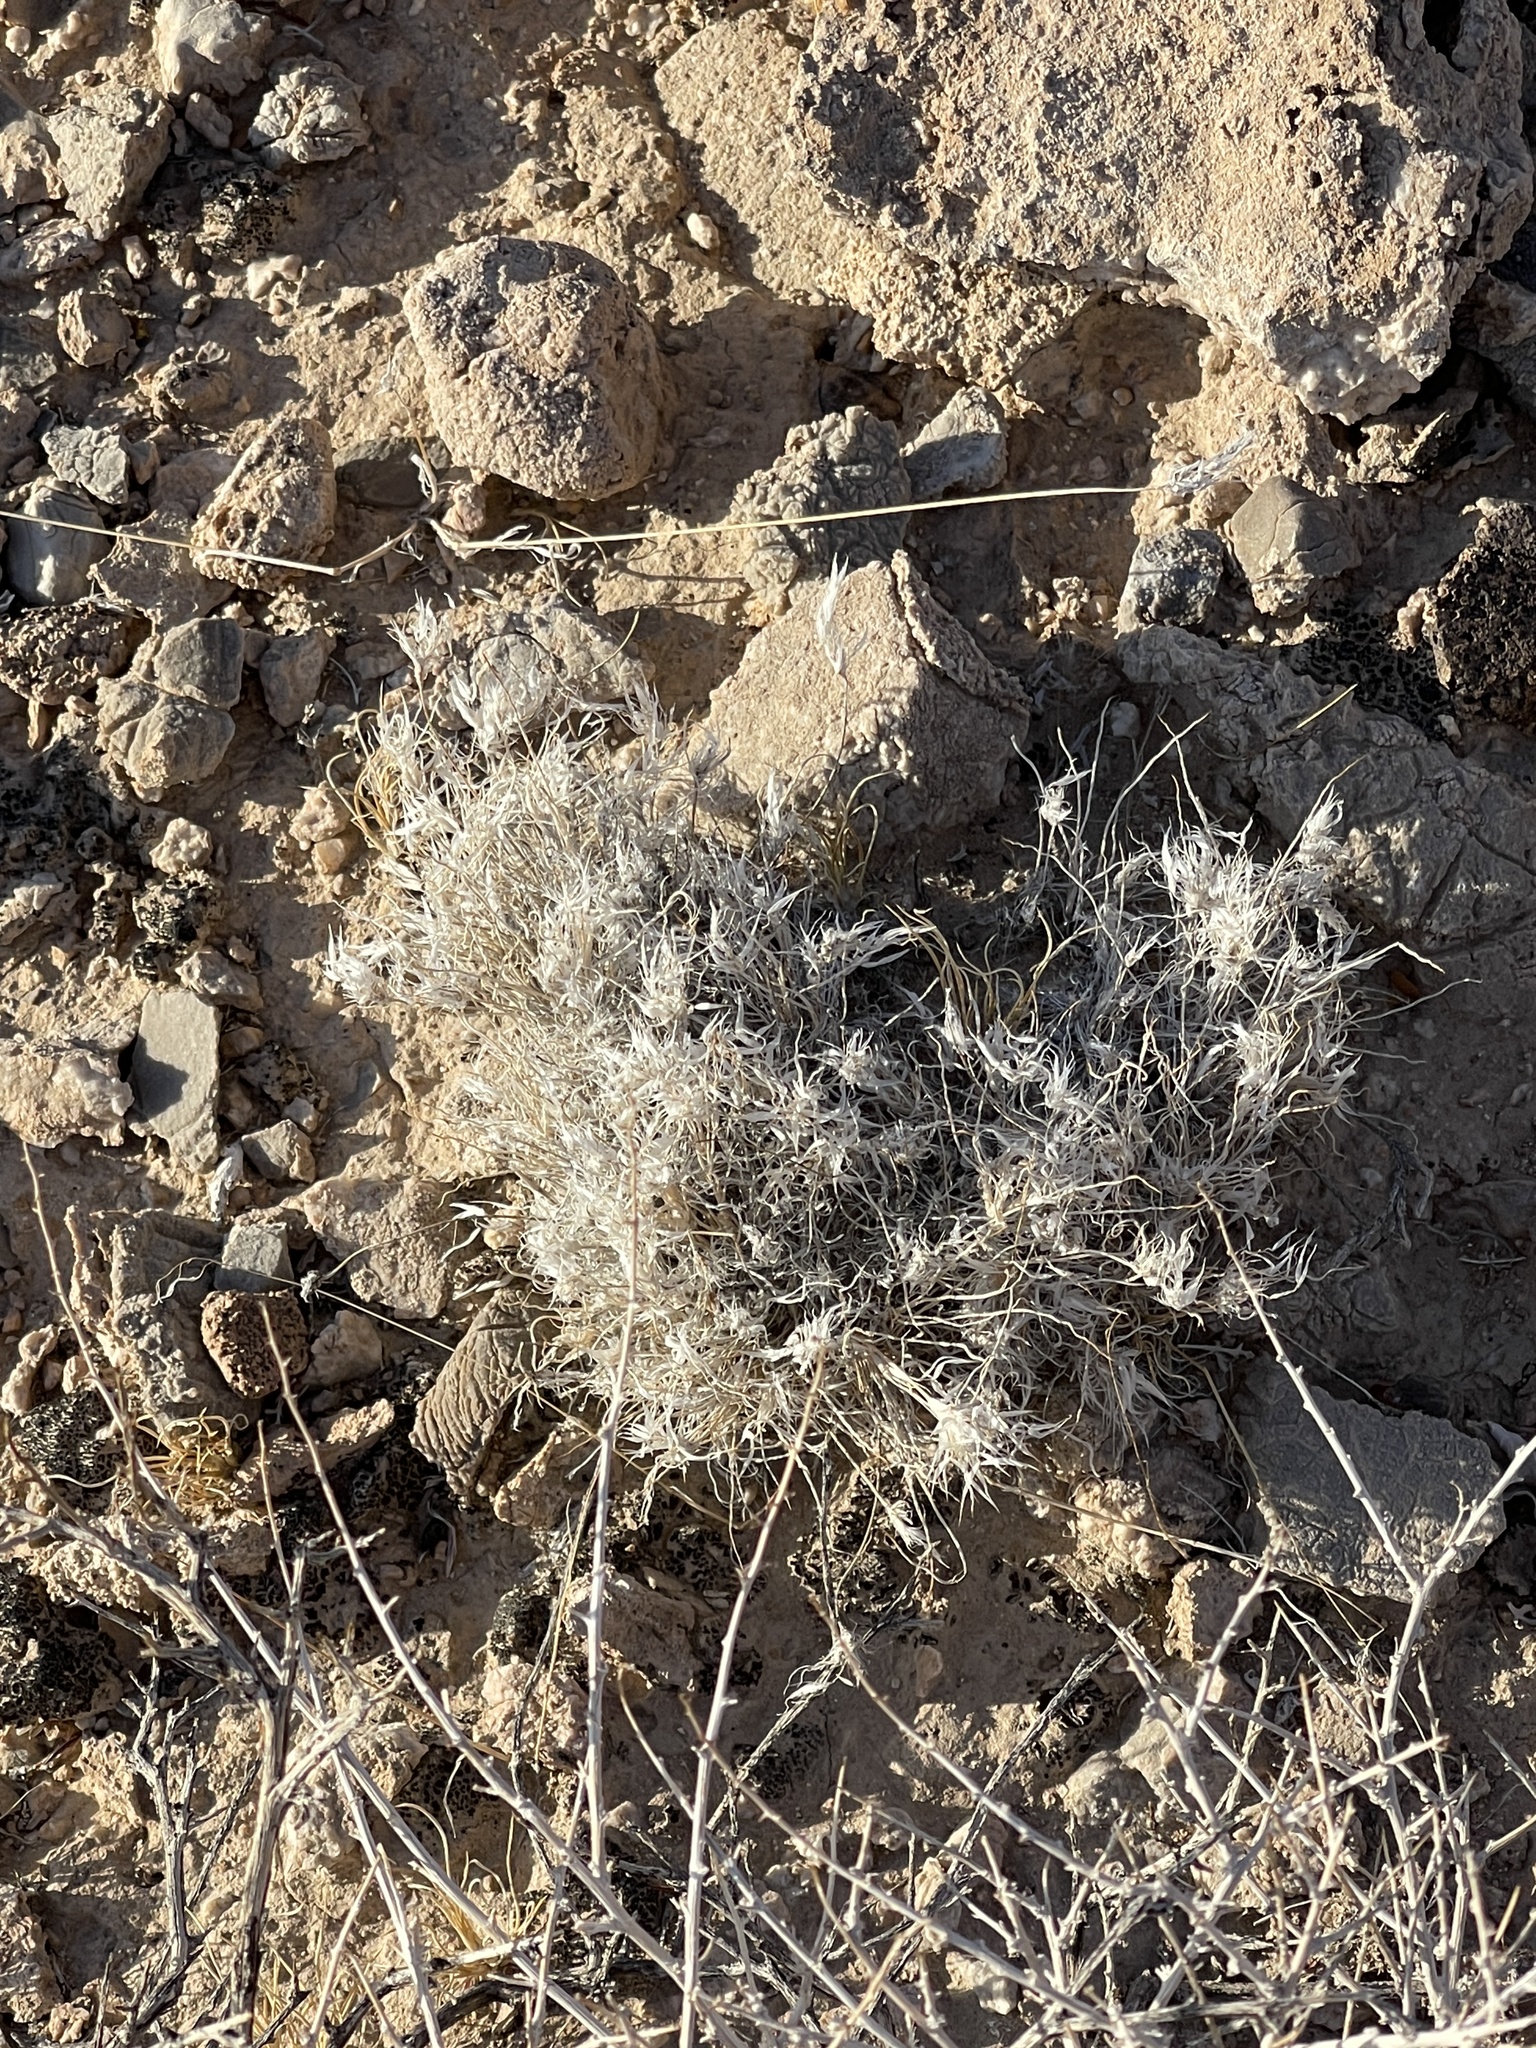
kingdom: Plantae
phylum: Tracheophyta
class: Liliopsida
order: Poales
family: Poaceae
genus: Dasyochloa
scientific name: Dasyochloa pulchella
